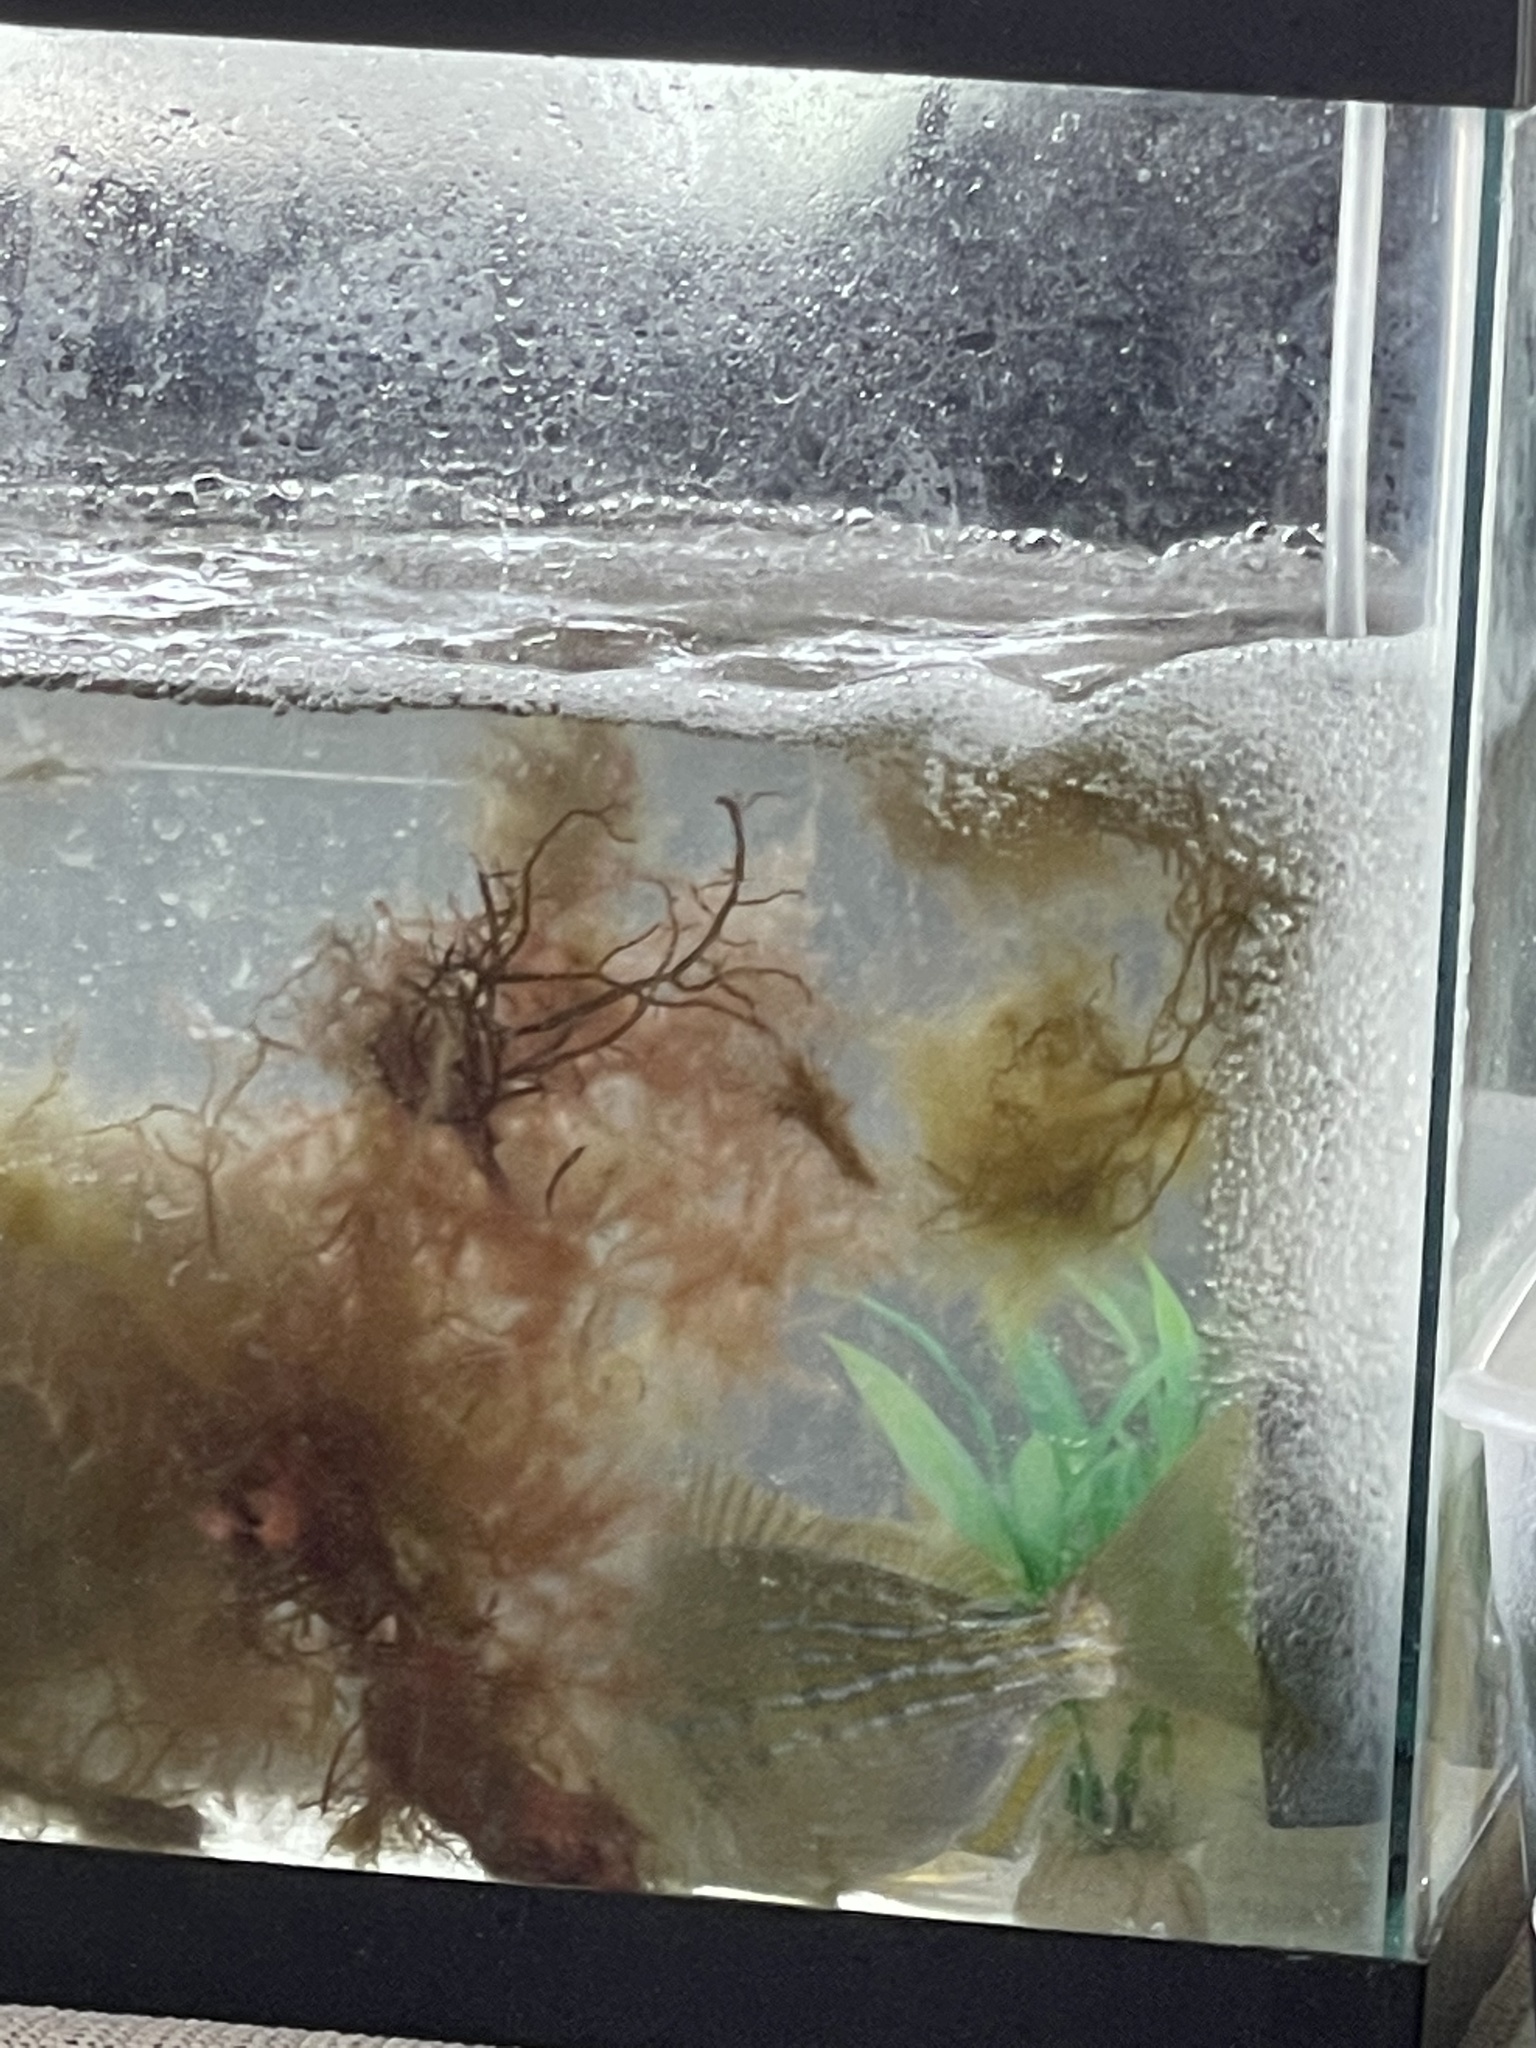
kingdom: Animalia
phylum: Chordata
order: Perciformes
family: Sparidae
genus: Lagodon
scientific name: Lagodon rhomboides
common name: Pinfish
